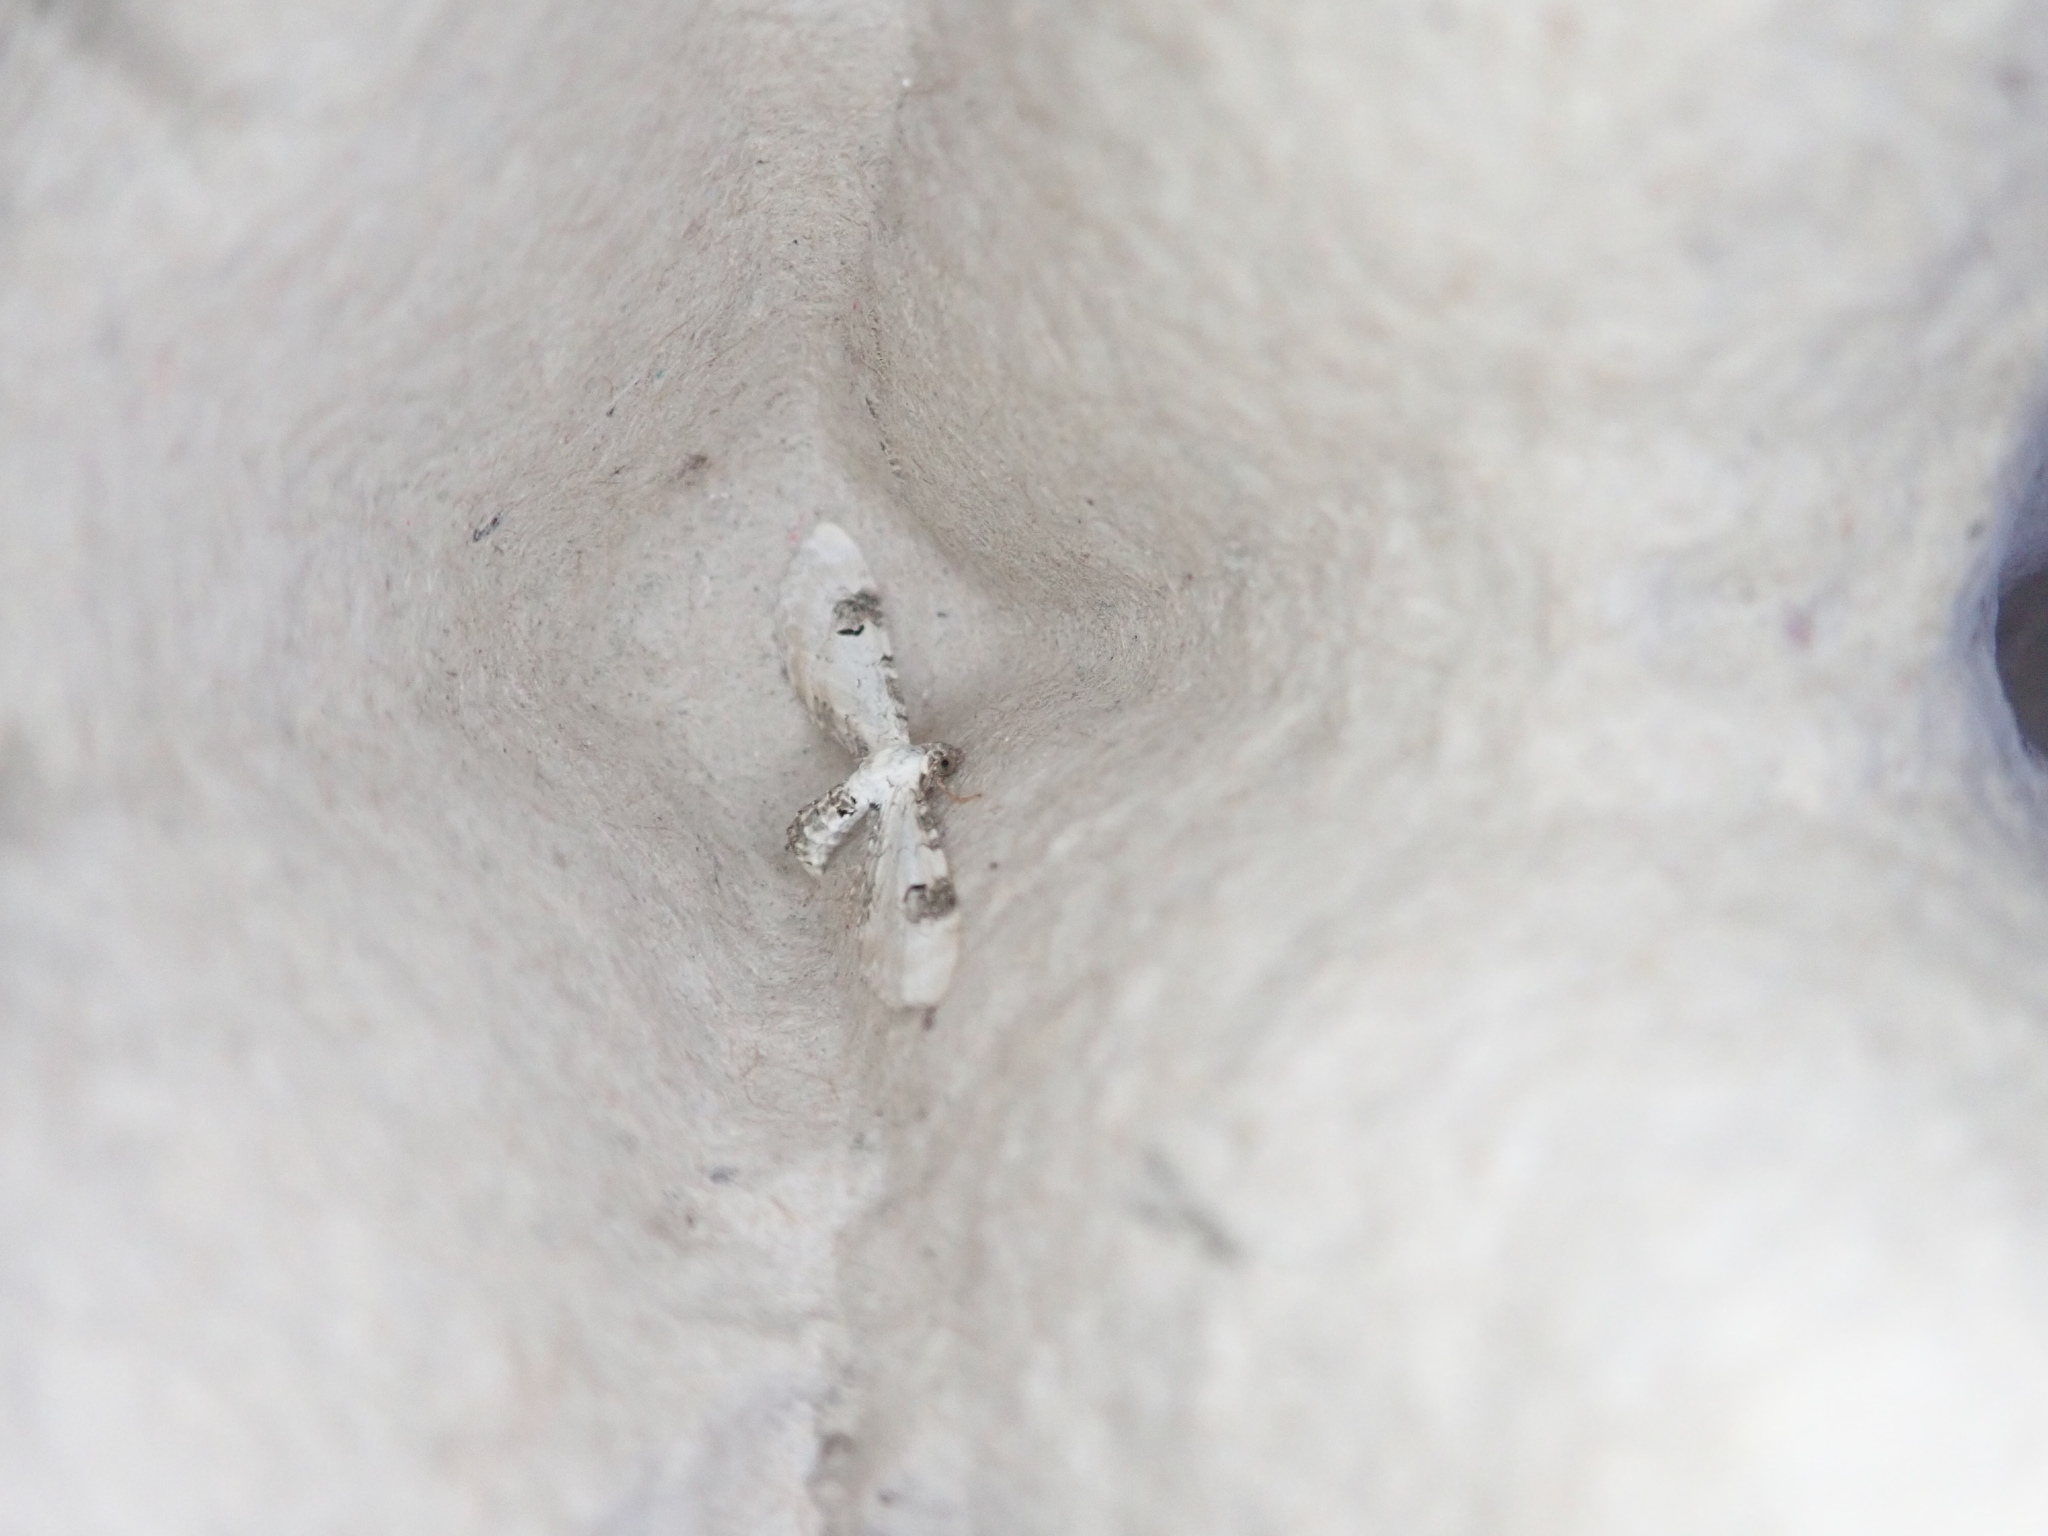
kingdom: Animalia
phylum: Arthropoda
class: Insecta
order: Lepidoptera
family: Geometridae
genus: Eupithecia
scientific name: Eupithecia centaureata
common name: Lime-speck pug
